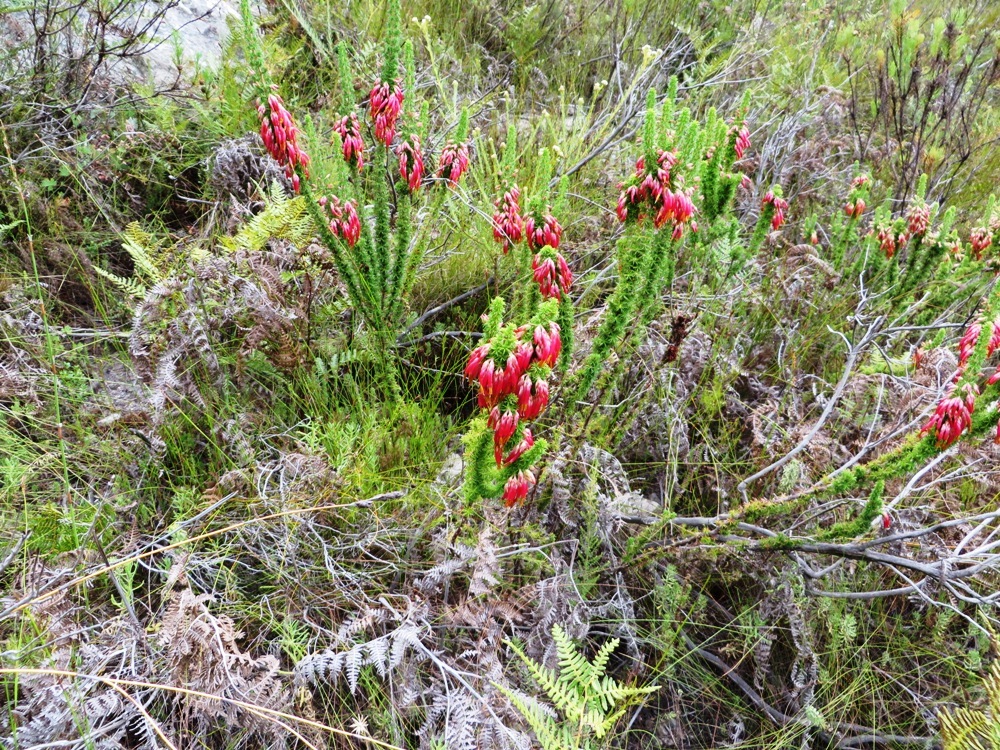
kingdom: Plantae
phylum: Tracheophyta
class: Magnoliopsida
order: Ericales
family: Ericaceae
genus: Erica
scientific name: Erica coccinea
